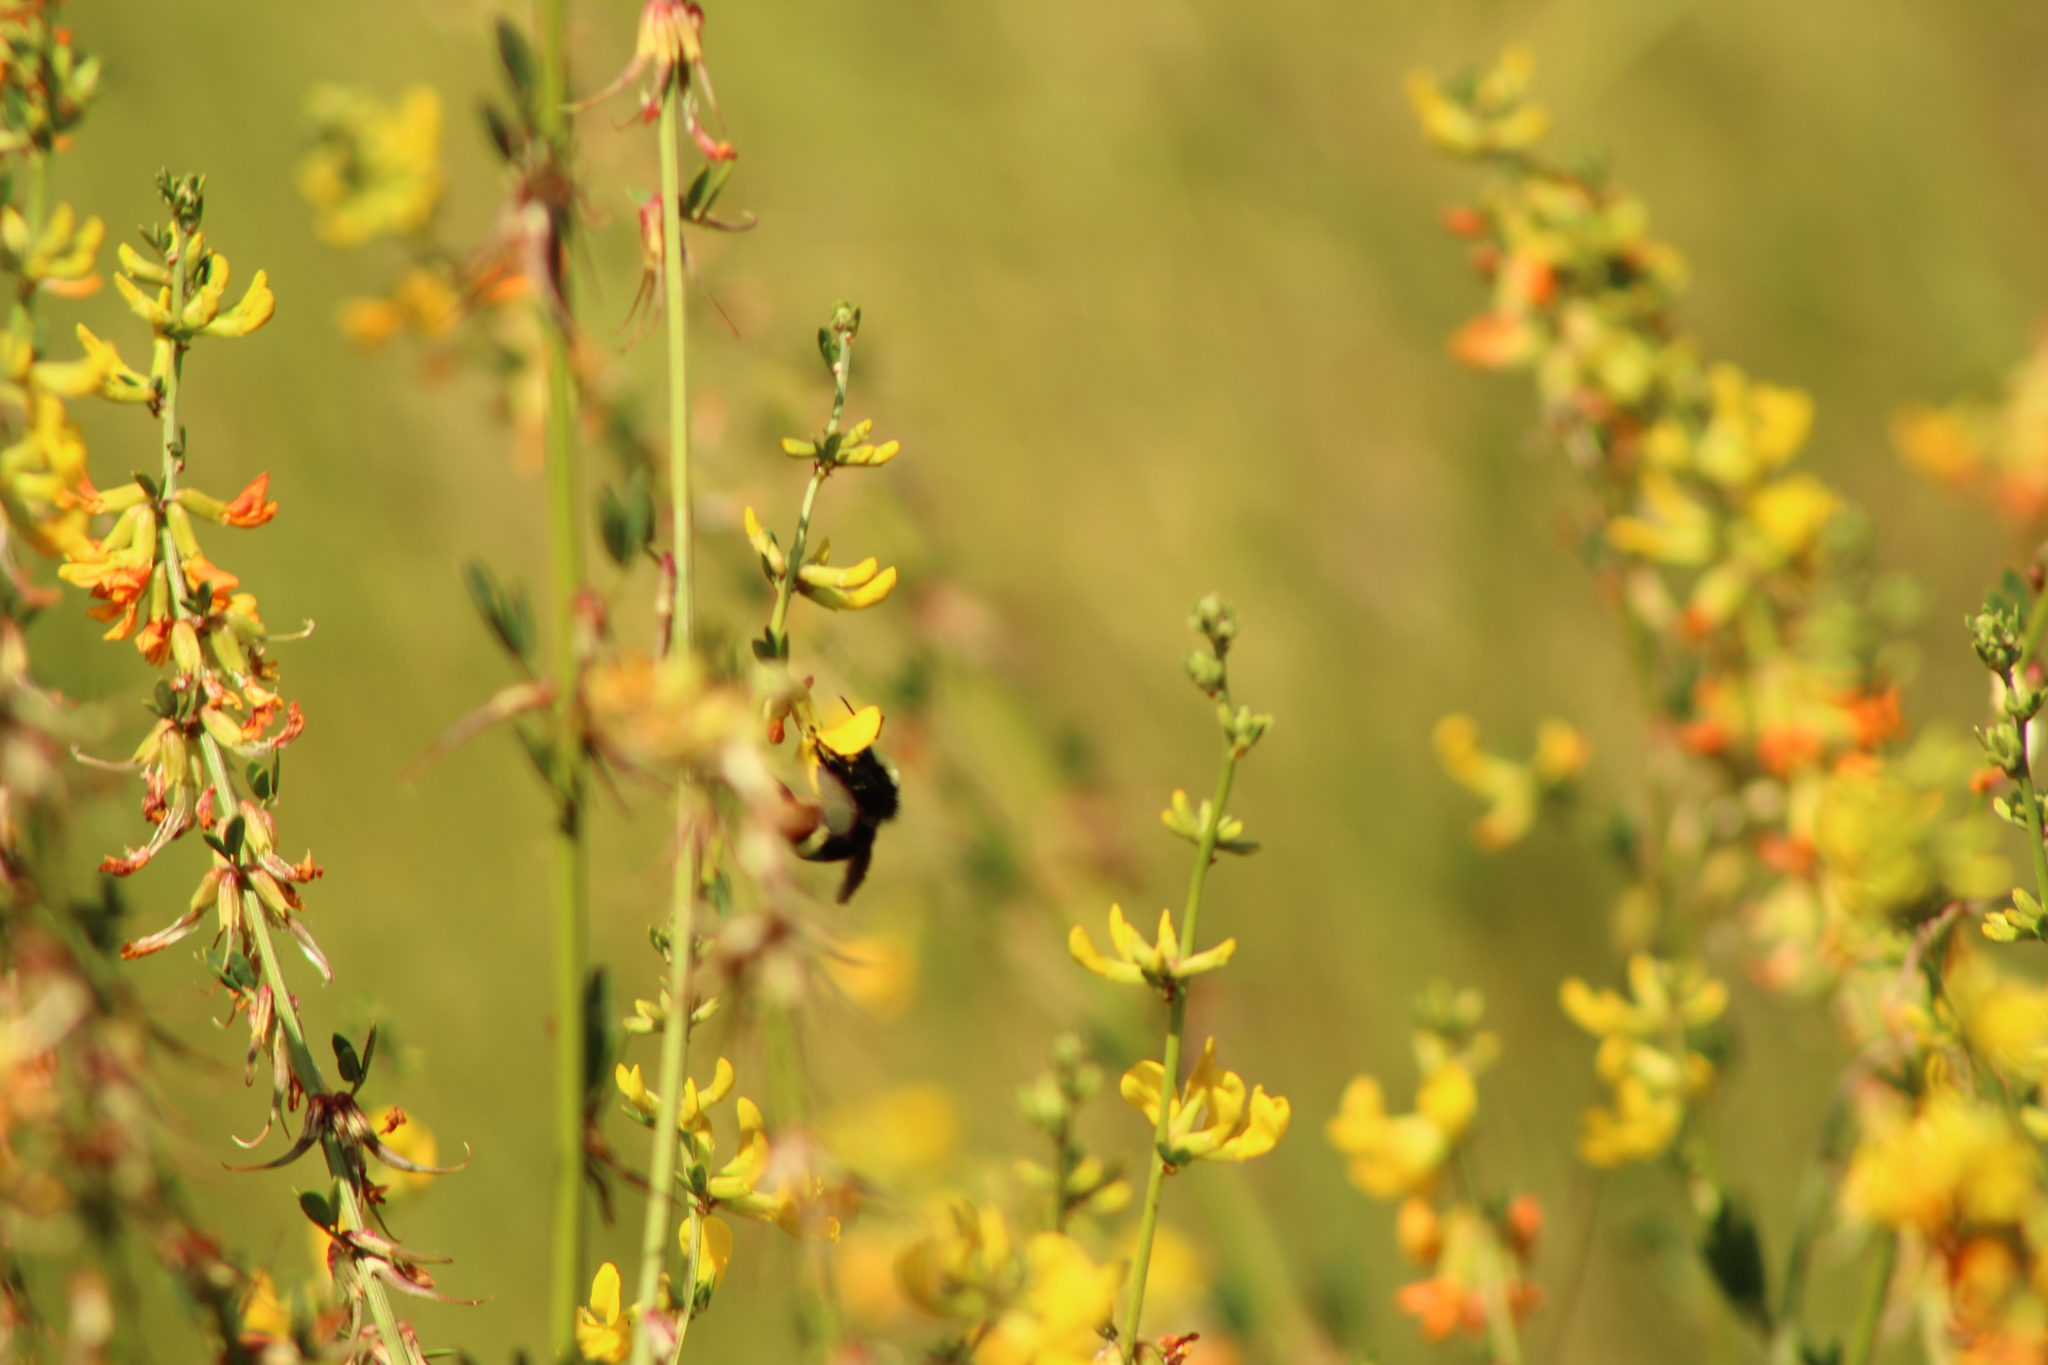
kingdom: Animalia
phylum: Arthropoda
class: Insecta
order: Hymenoptera
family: Apidae
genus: Bombus
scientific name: Bombus californicus
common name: California bumble bee
